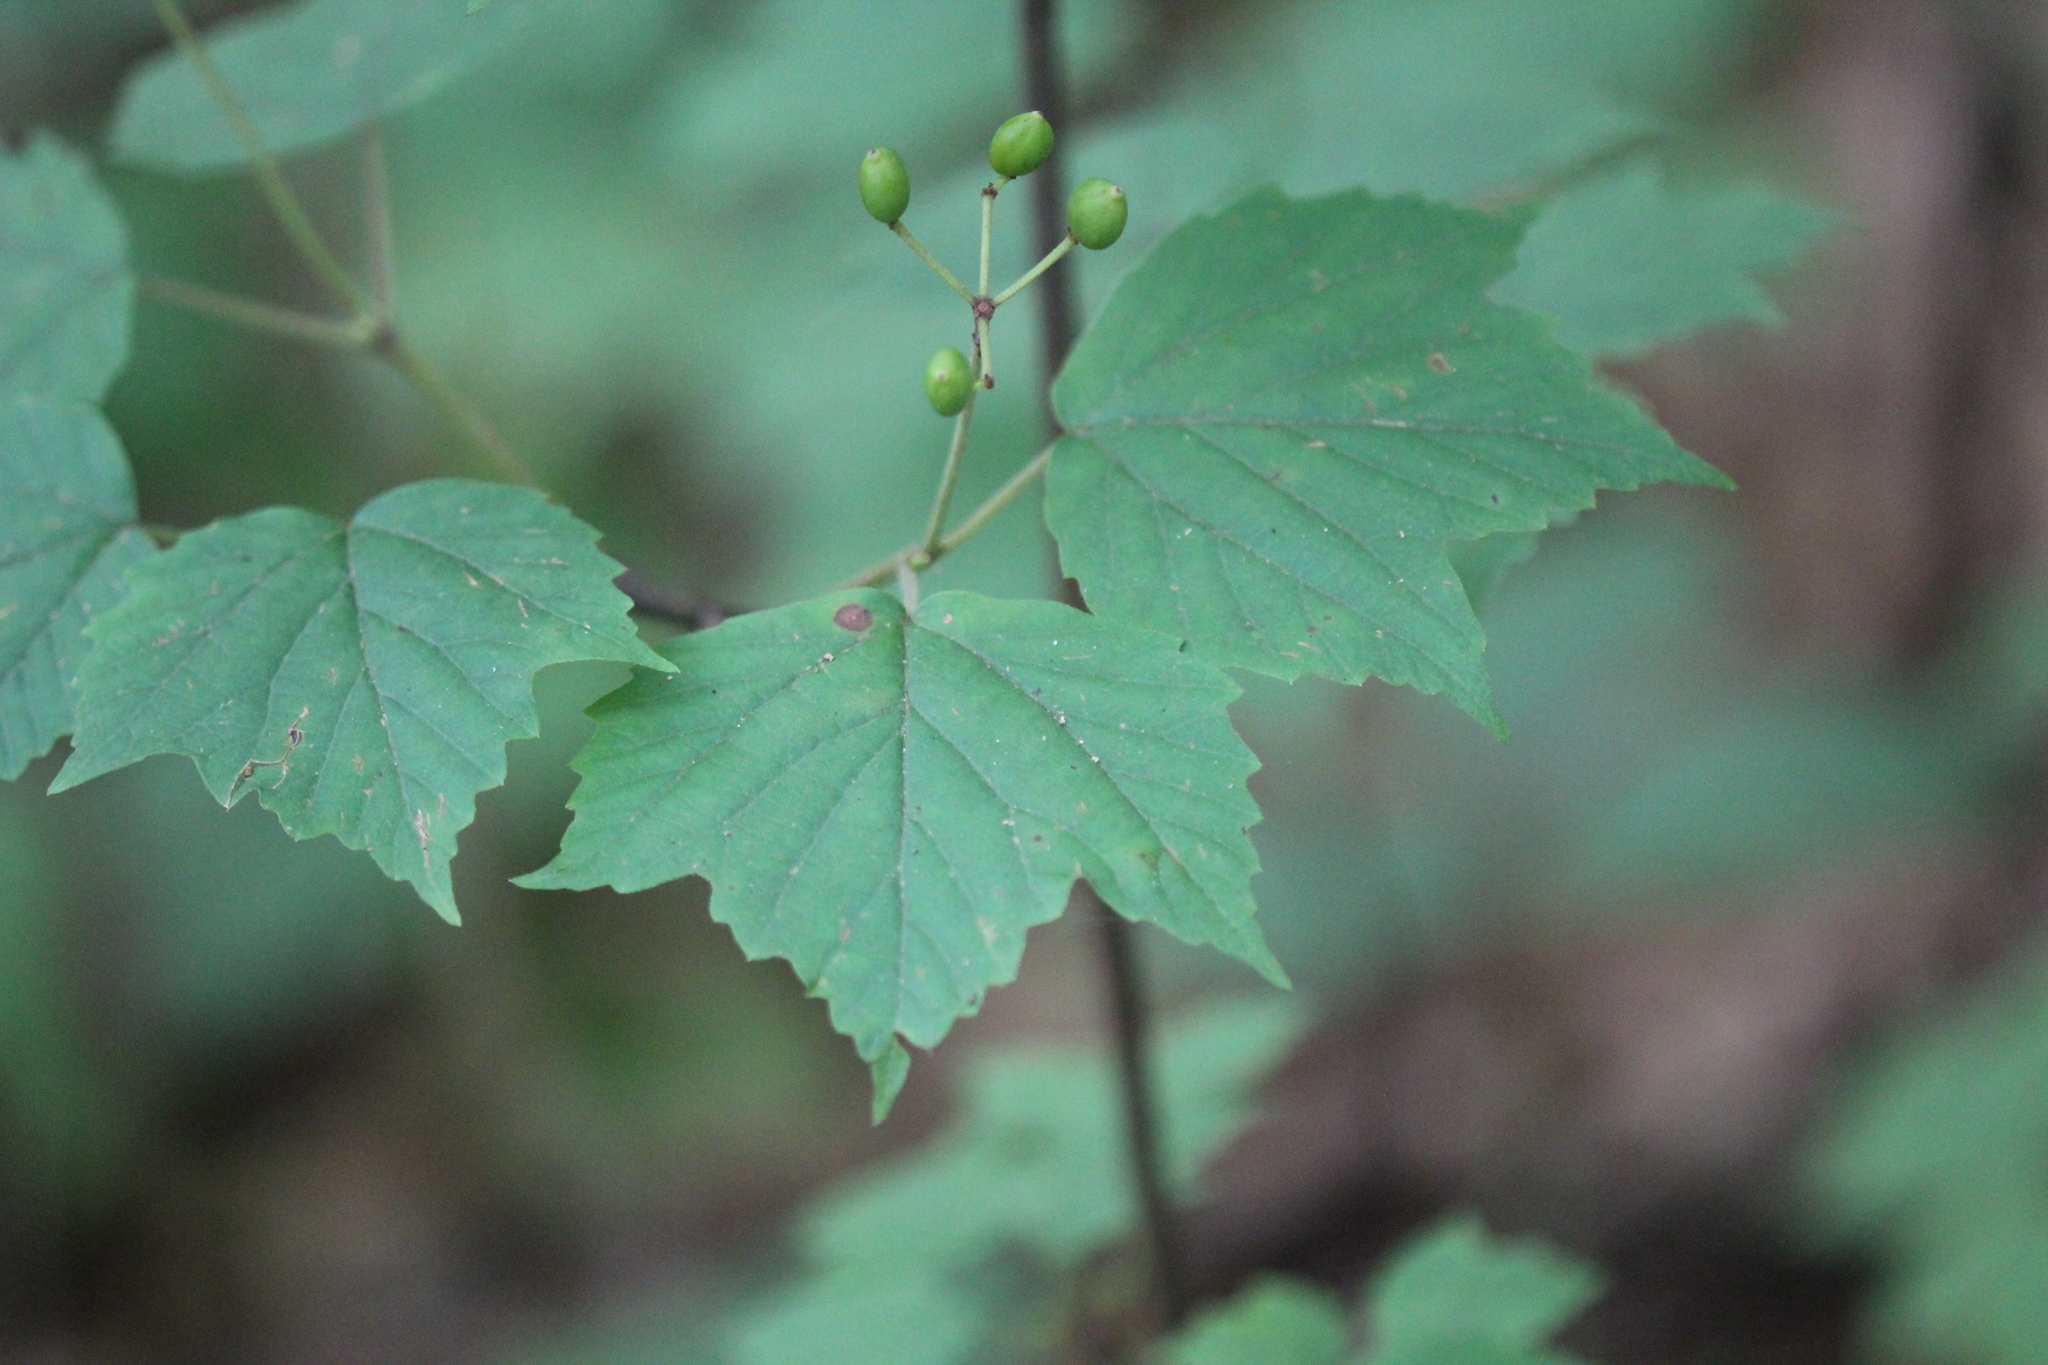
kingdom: Plantae
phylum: Tracheophyta
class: Magnoliopsida
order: Dipsacales
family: Viburnaceae
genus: Viburnum
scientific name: Viburnum acerifolium
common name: Dockmackie
